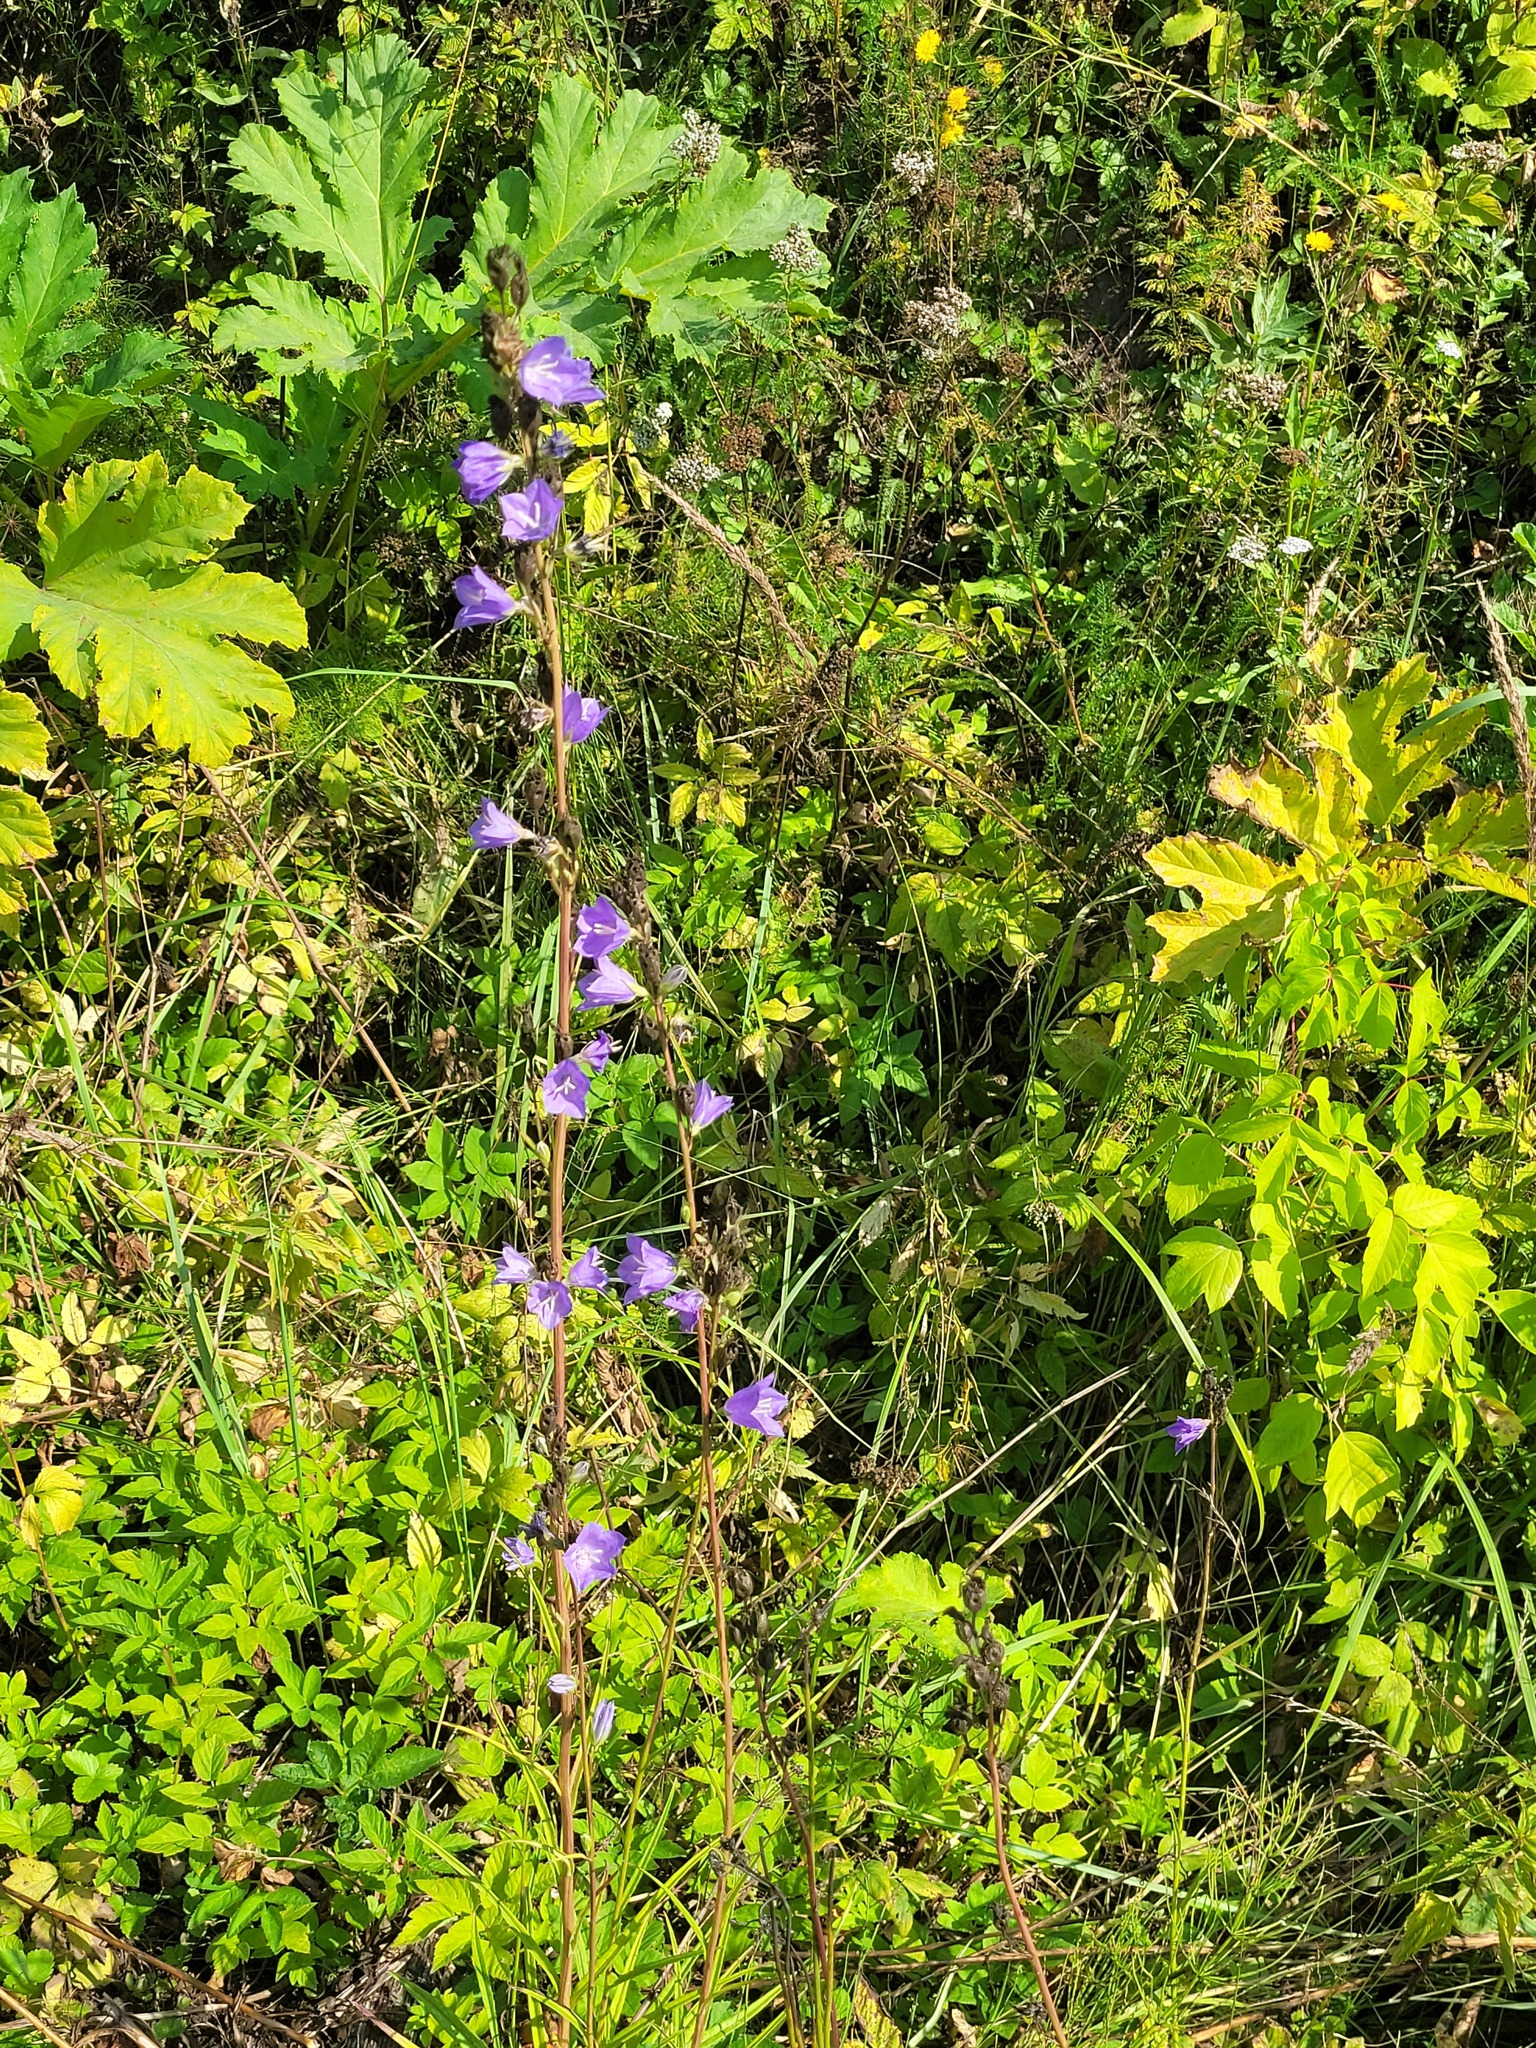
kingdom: Plantae
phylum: Tracheophyta
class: Magnoliopsida
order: Asterales
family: Campanulaceae
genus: Campanula
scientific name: Campanula persicifolia
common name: Peach-leaved bellflower
